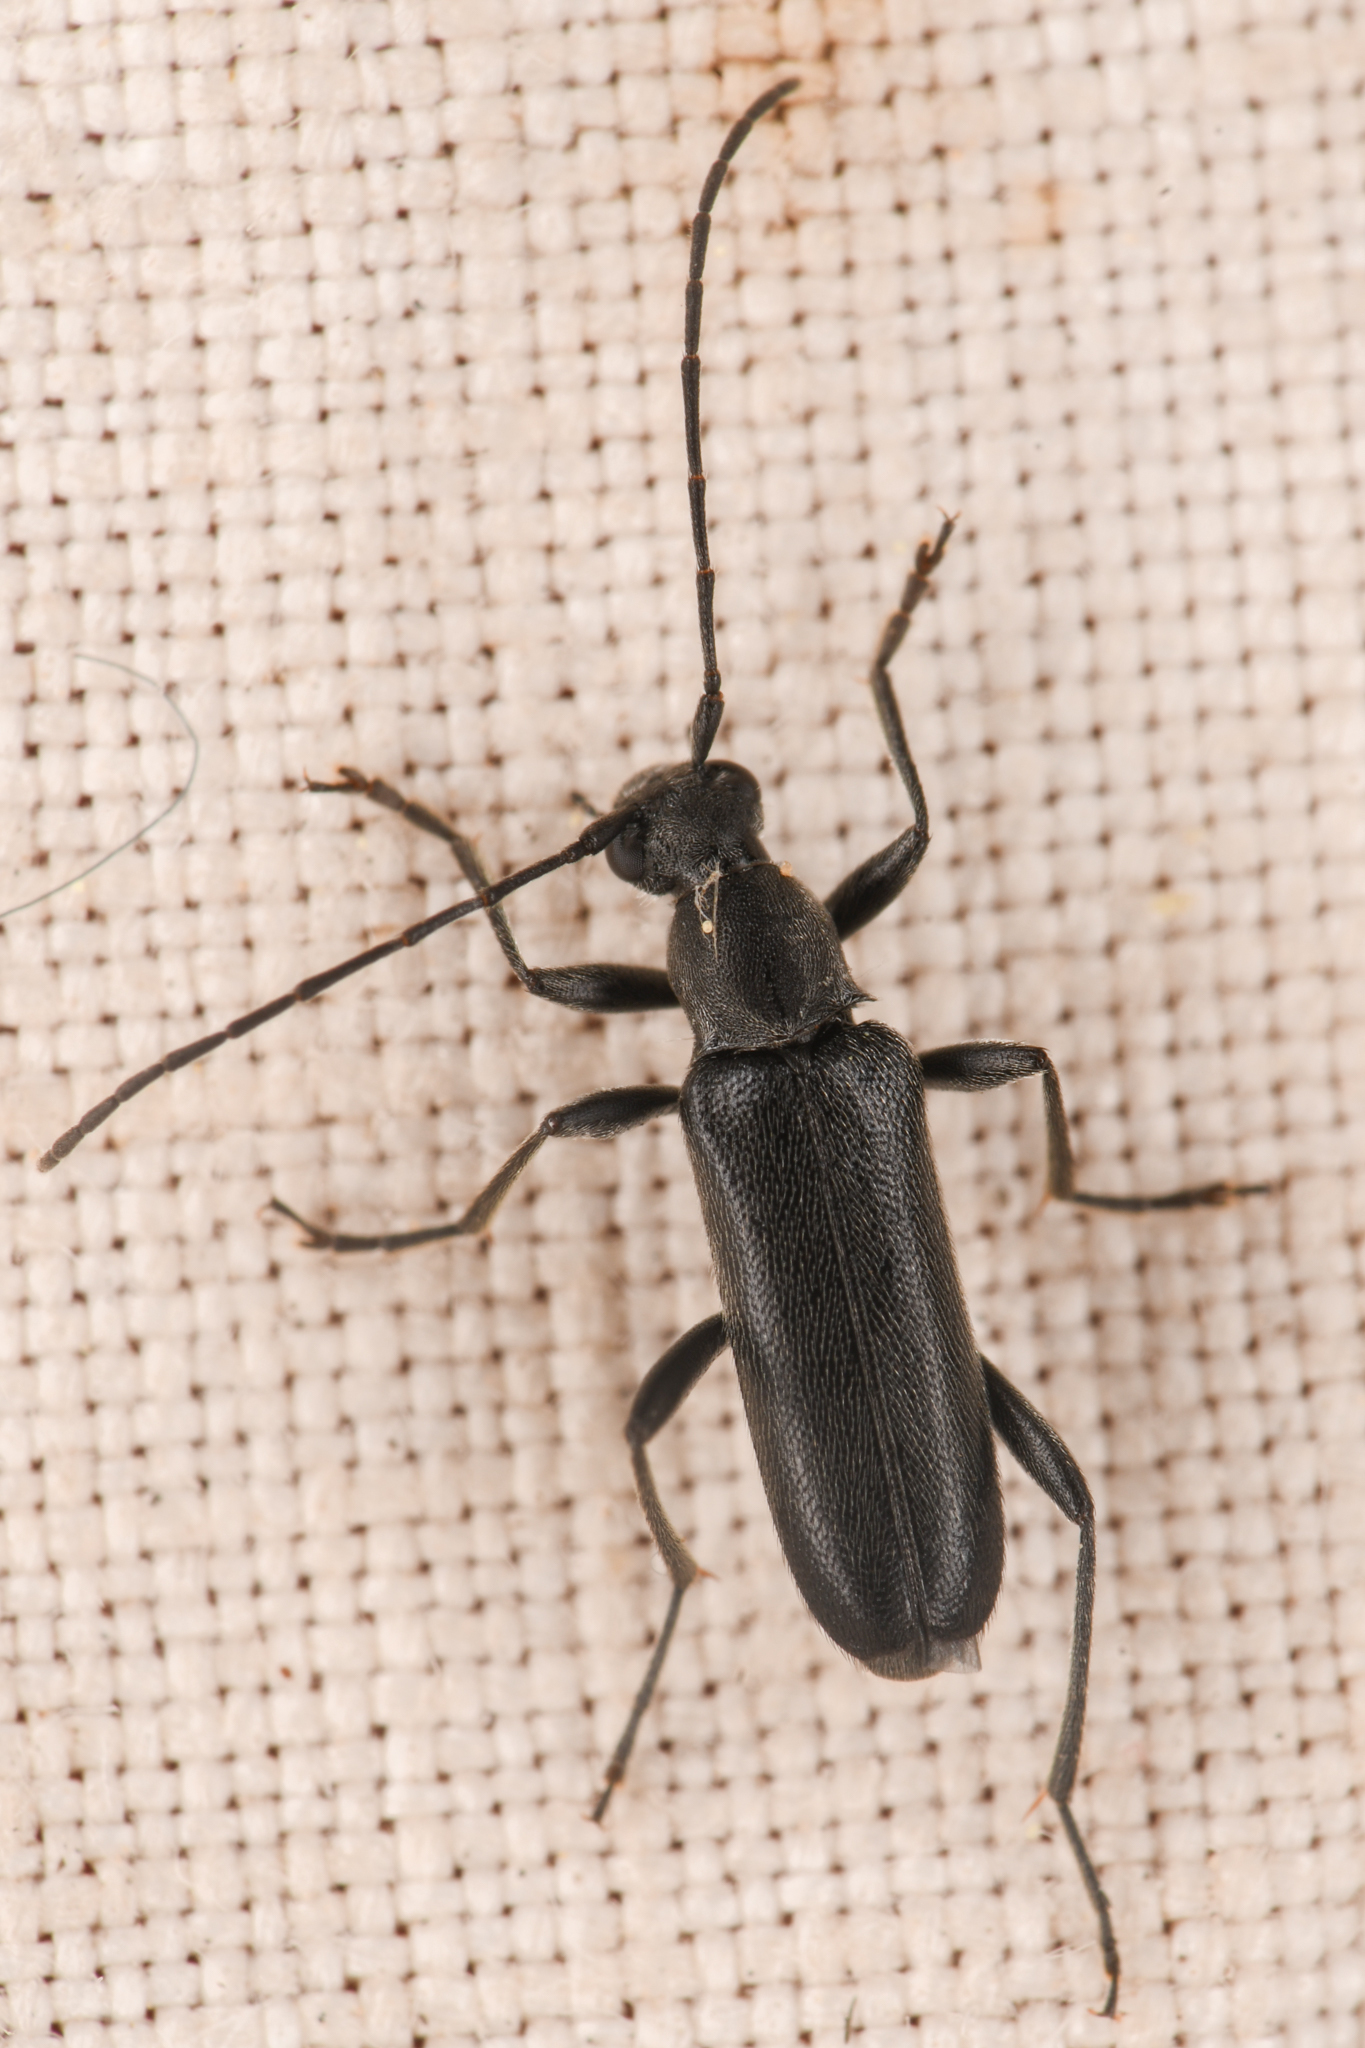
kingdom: Animalia
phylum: Arthropoda
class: Insecta
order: Coleoptera
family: Cerambycidae
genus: Grammoptera
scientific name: Grammoptera subargentata
